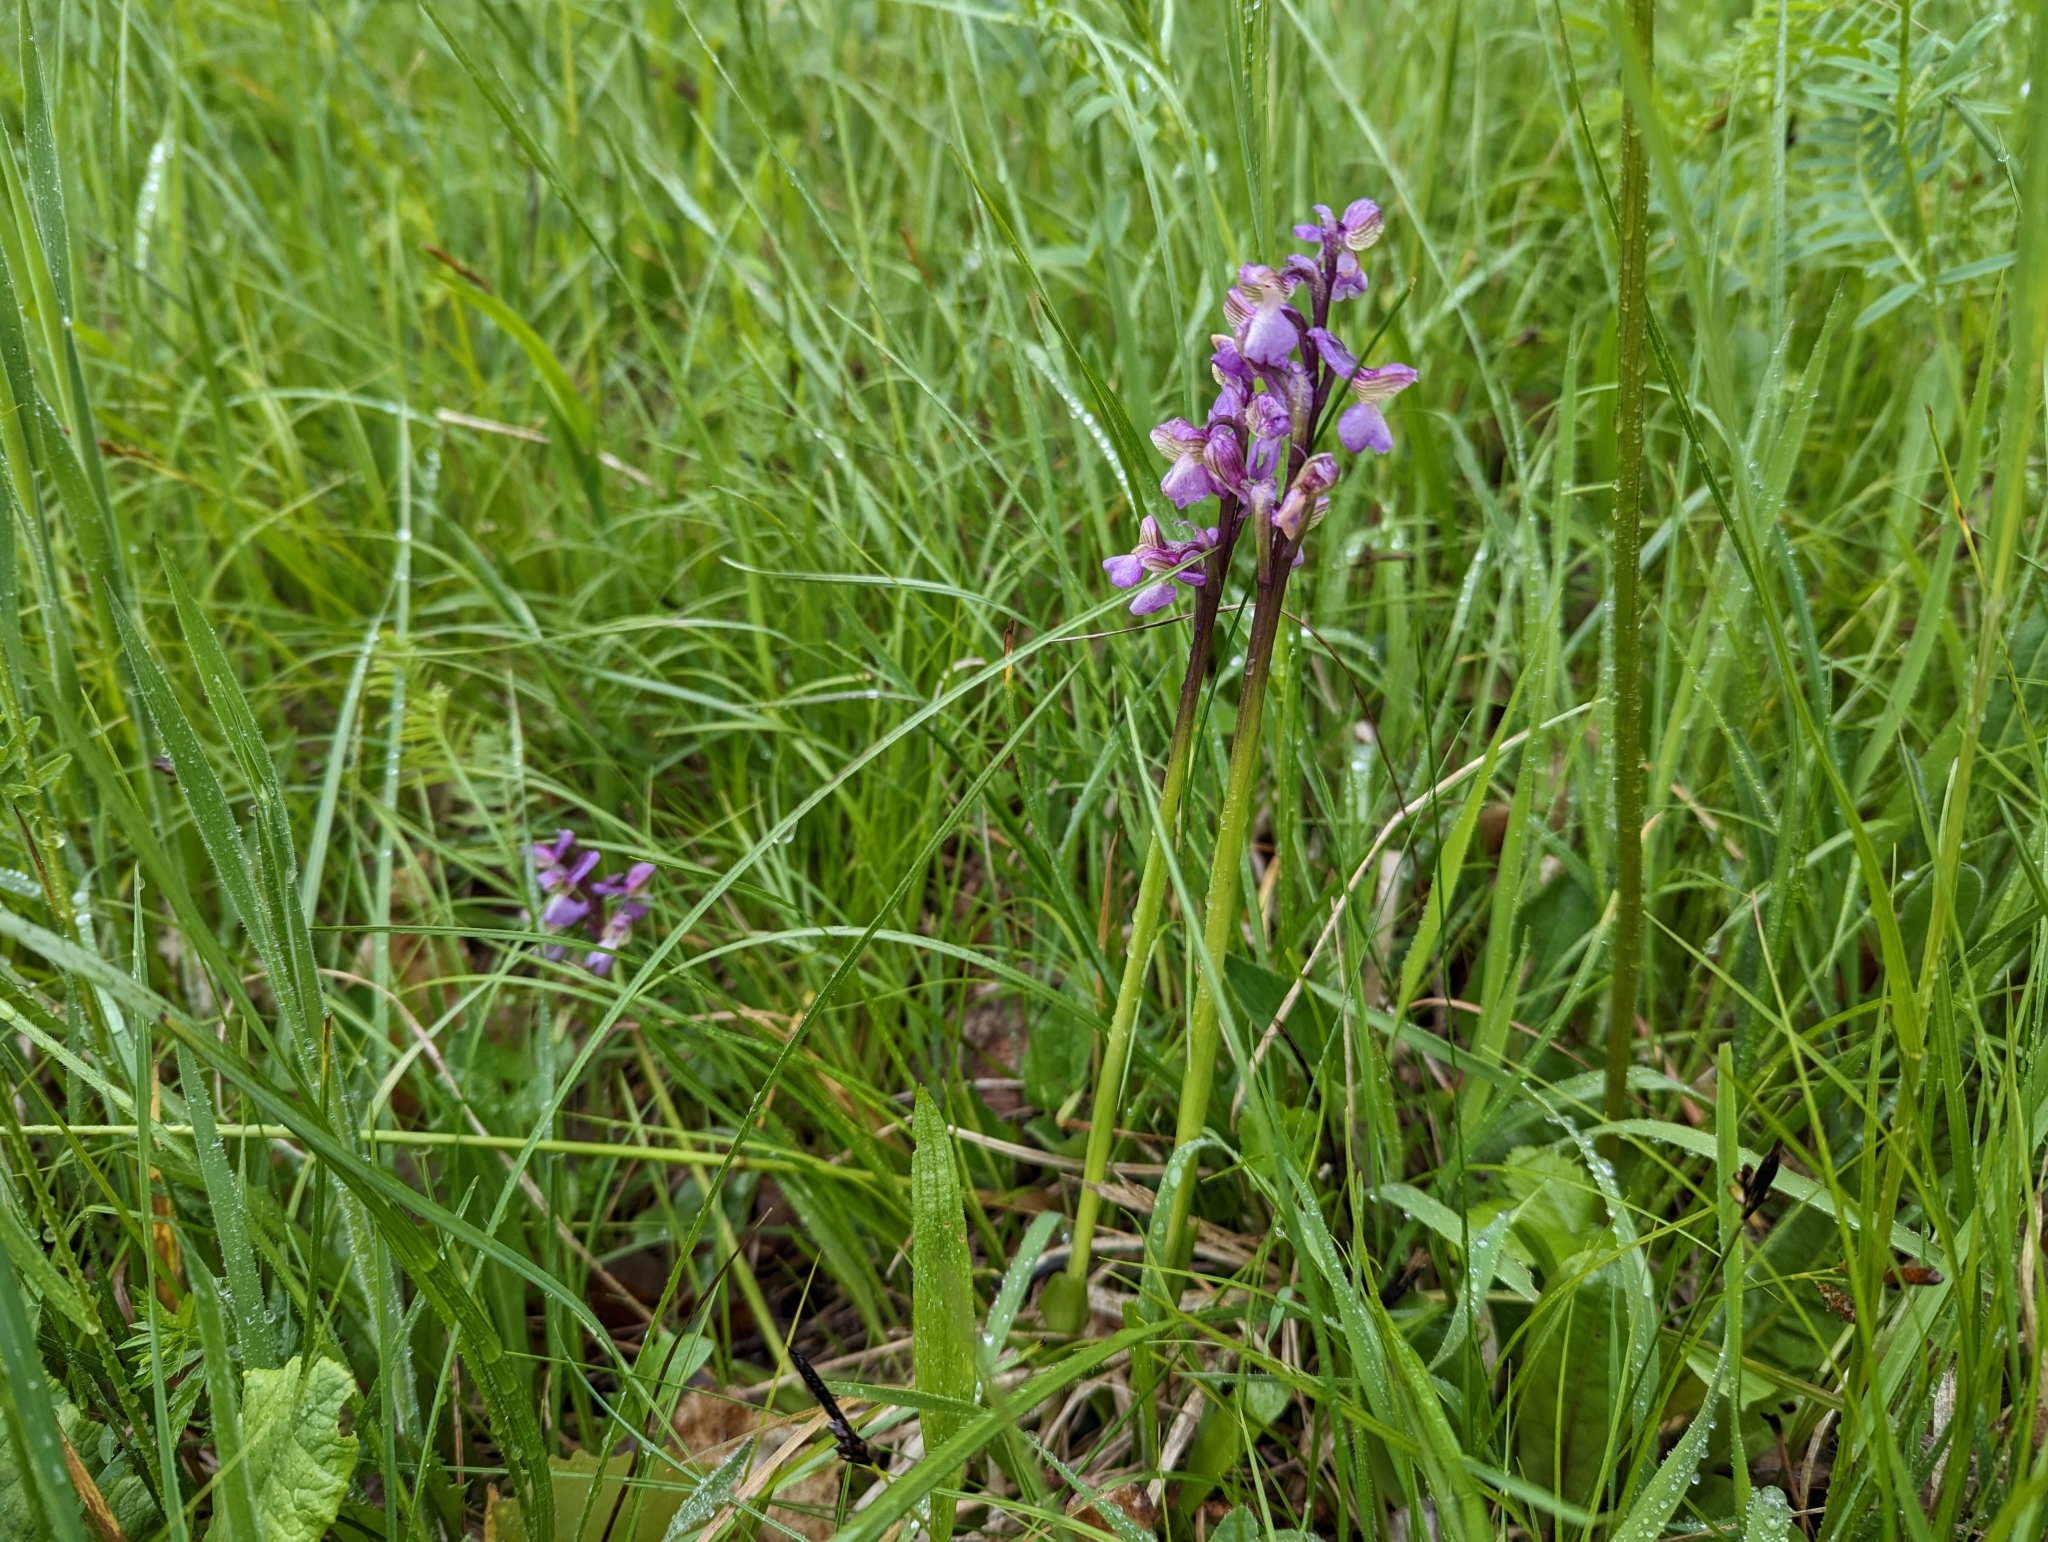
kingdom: Plantae
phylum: Tracheophyta
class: Liliopsida
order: Asparagales
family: Orchidaceae
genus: Anacamptis
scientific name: Anacamptis morio
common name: Green-winged orchid
